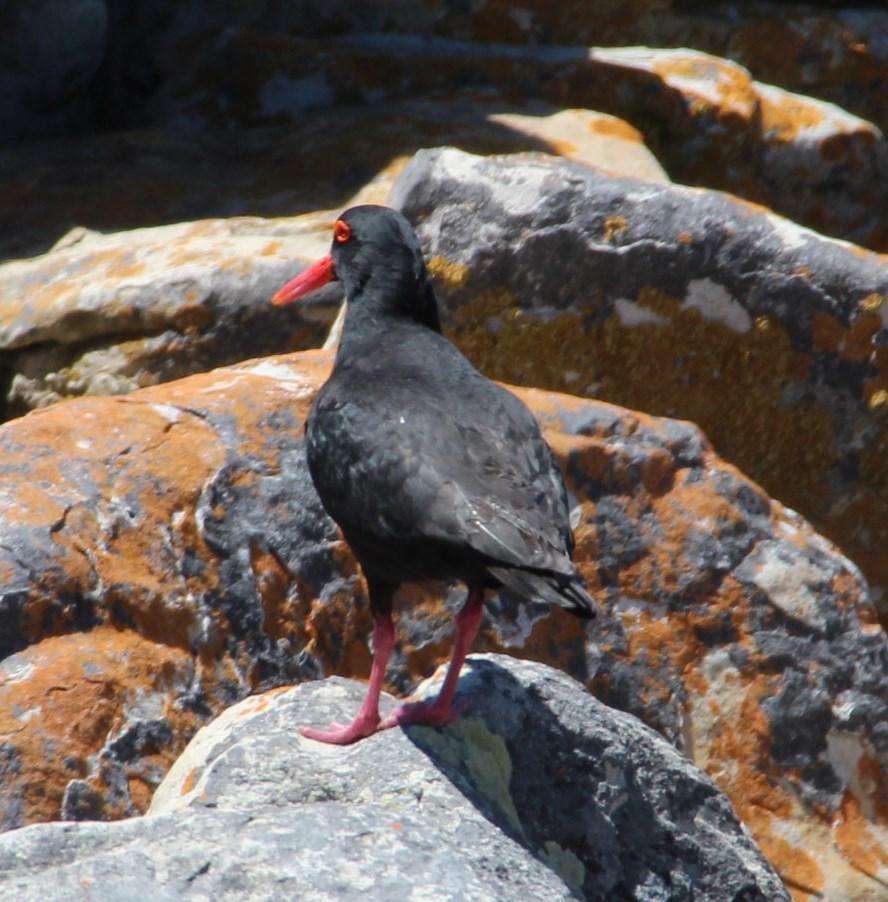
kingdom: Animalia
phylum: Chordata
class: Aves
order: Charadriiformes
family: Haematopodidae
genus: Haematopus
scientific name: Haematopus moquini
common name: African oystercatcher
